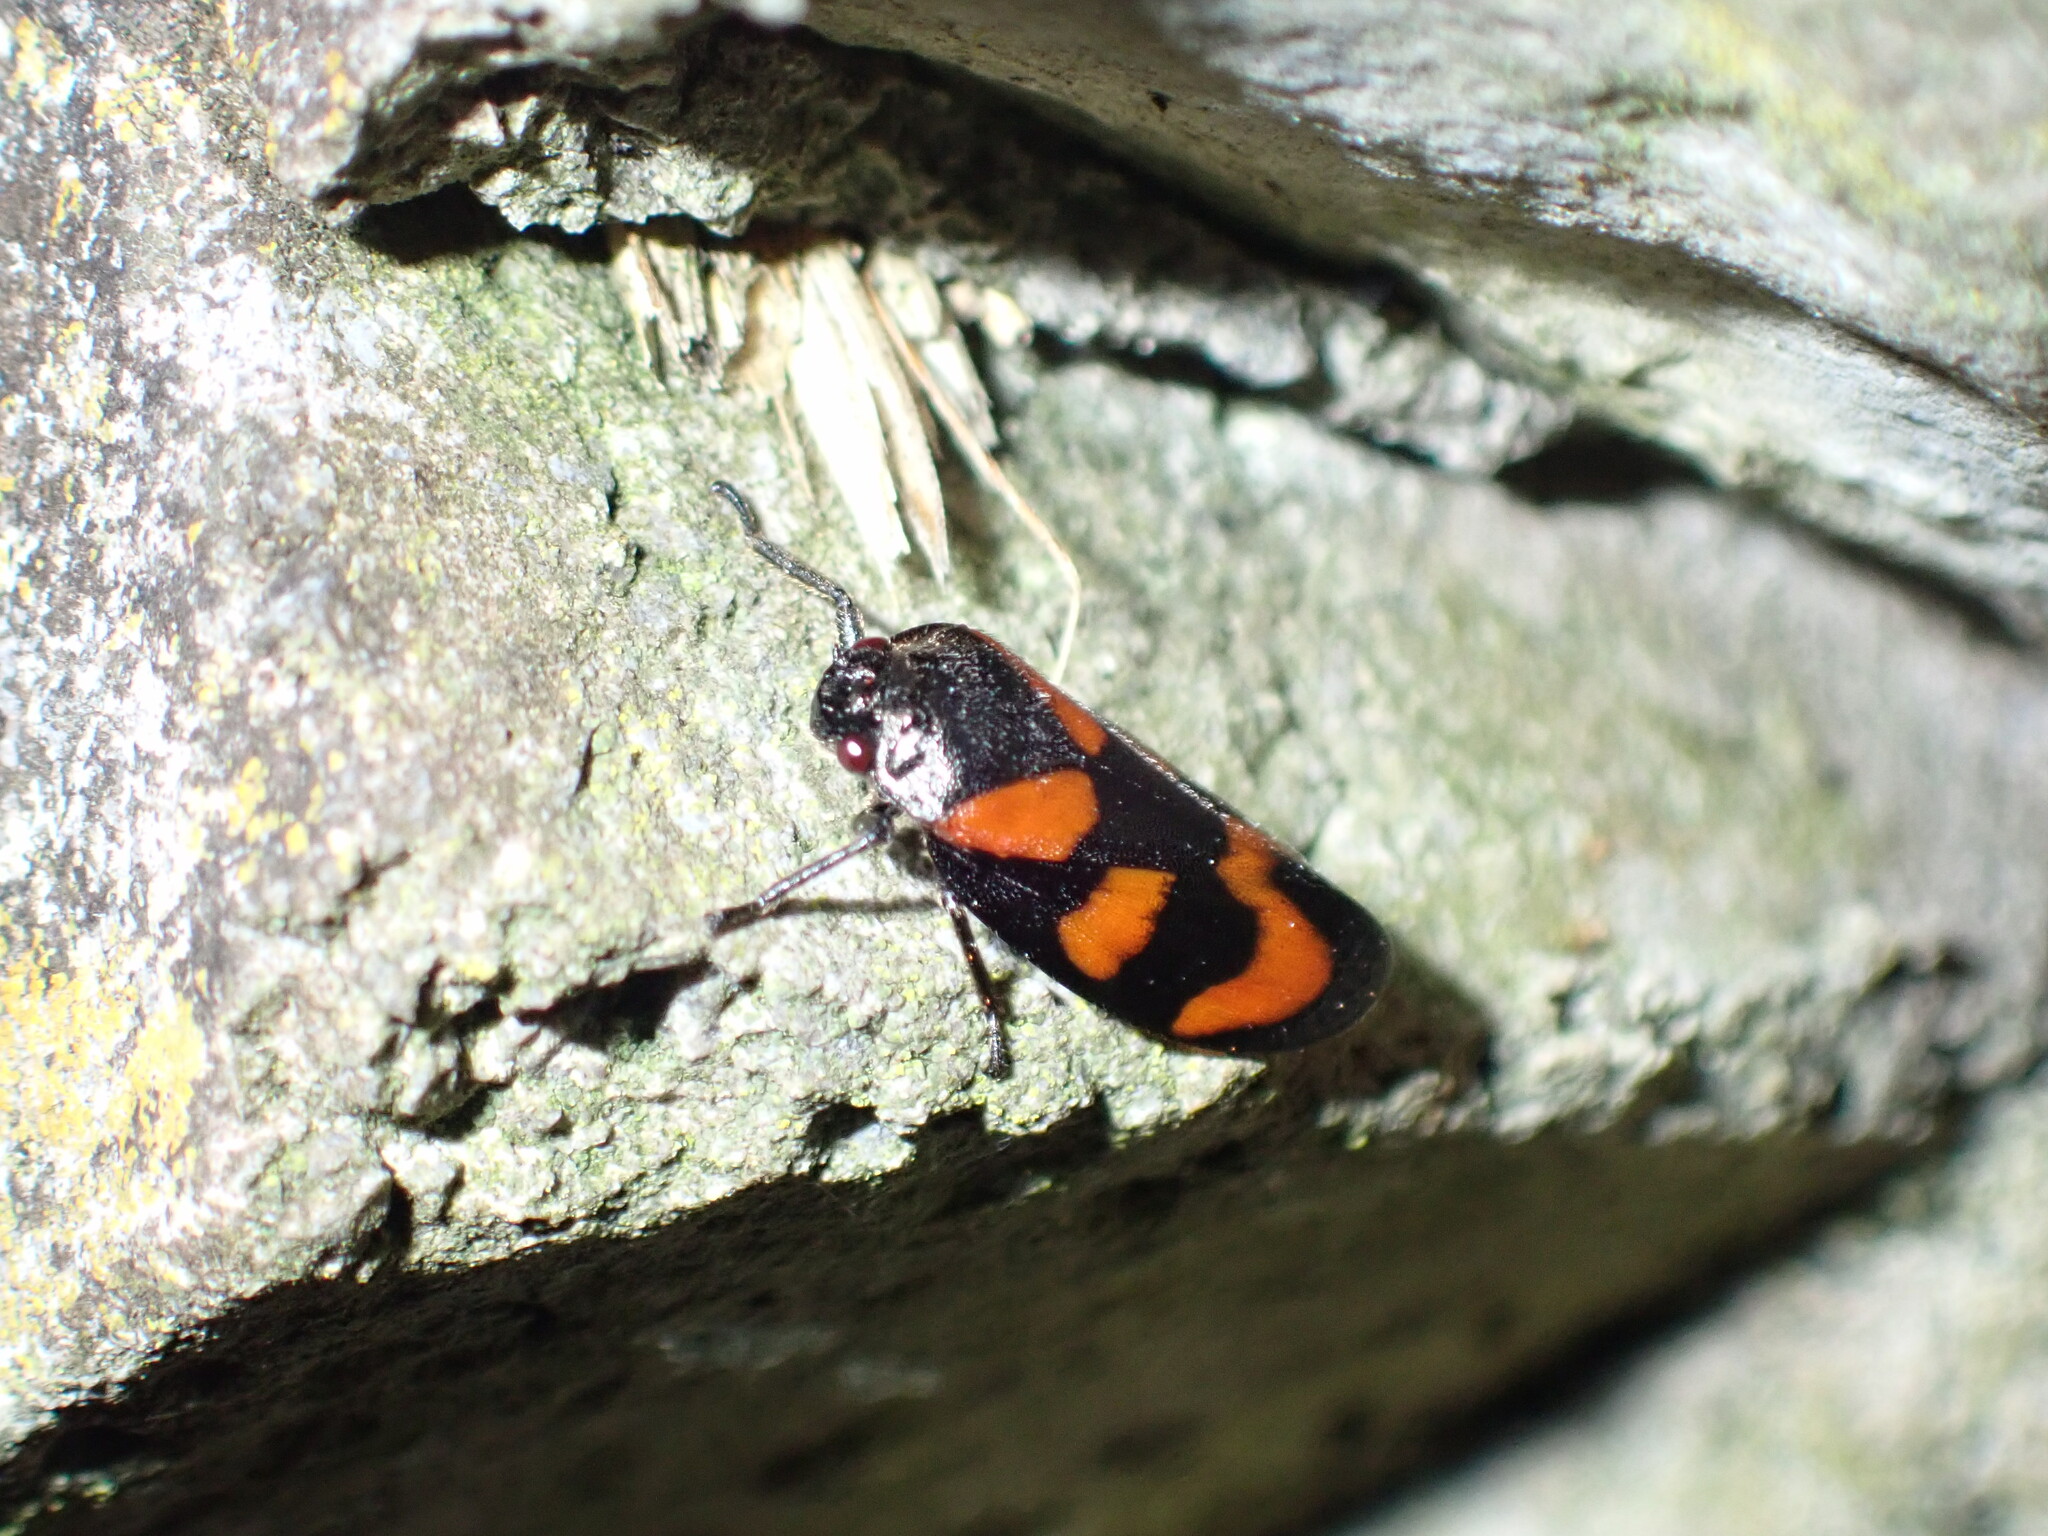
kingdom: Animalia
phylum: Arthropoda
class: Insecta
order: Hemiptera
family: Cercopidae
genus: Cercopis
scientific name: Cercopis vulnerata
